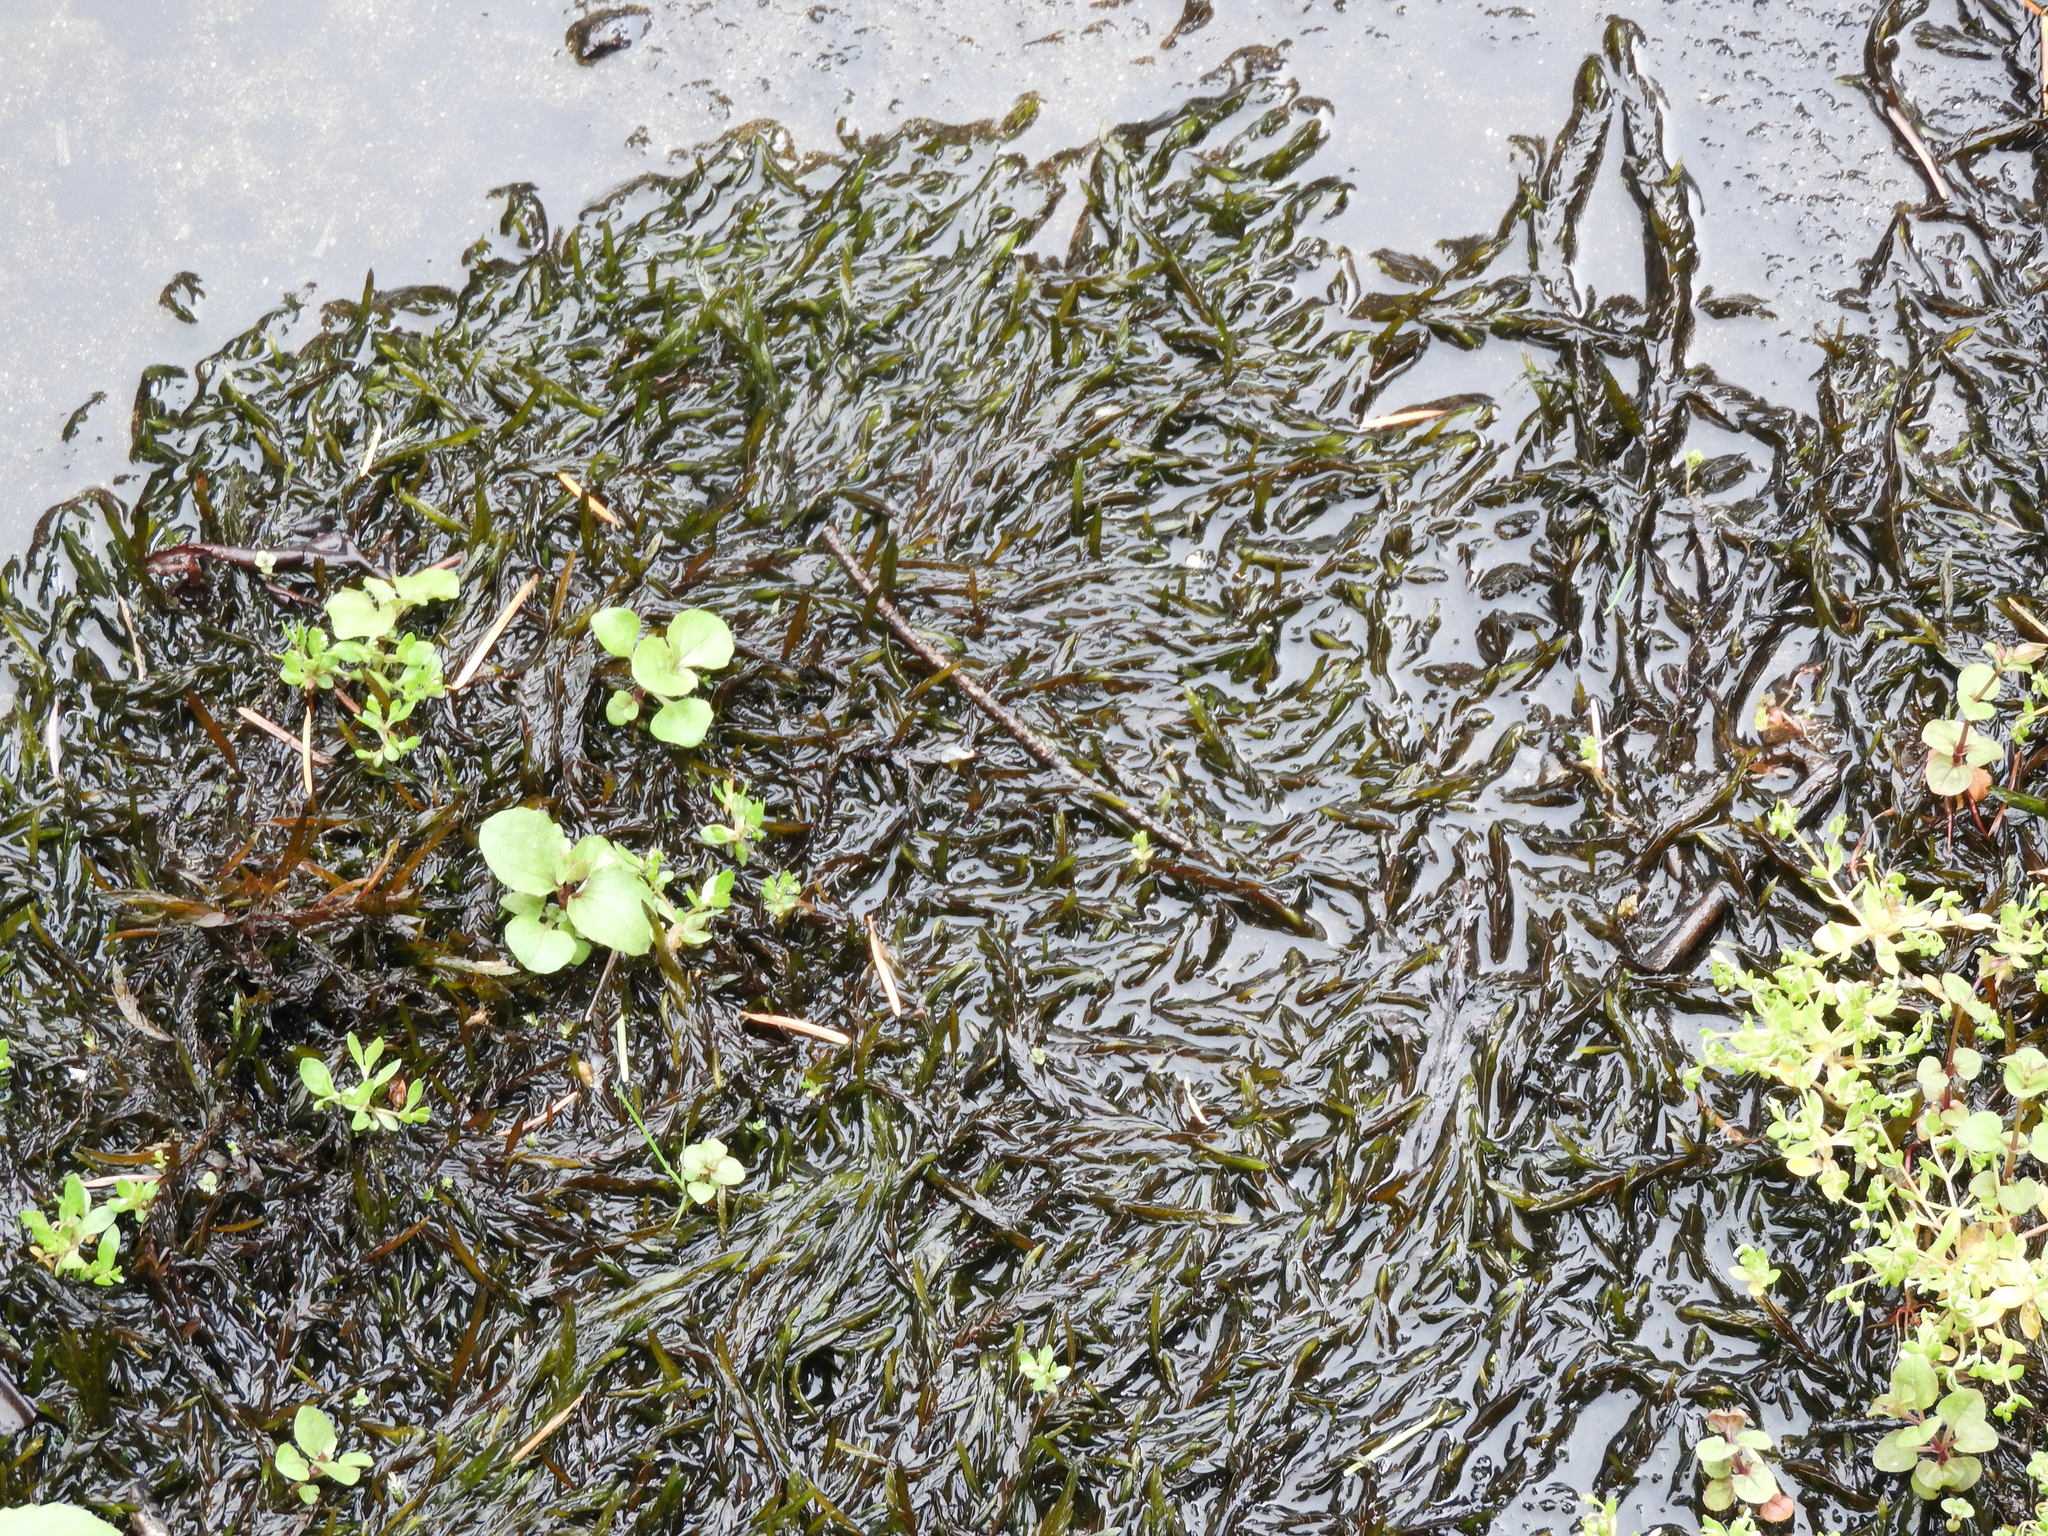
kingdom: Plantae
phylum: Bryophyta
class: Bryopsida
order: Hypnales
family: Fontinalaceae
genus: Fontinalis
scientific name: Fontinalis antipyretica
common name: Greater water-moss
